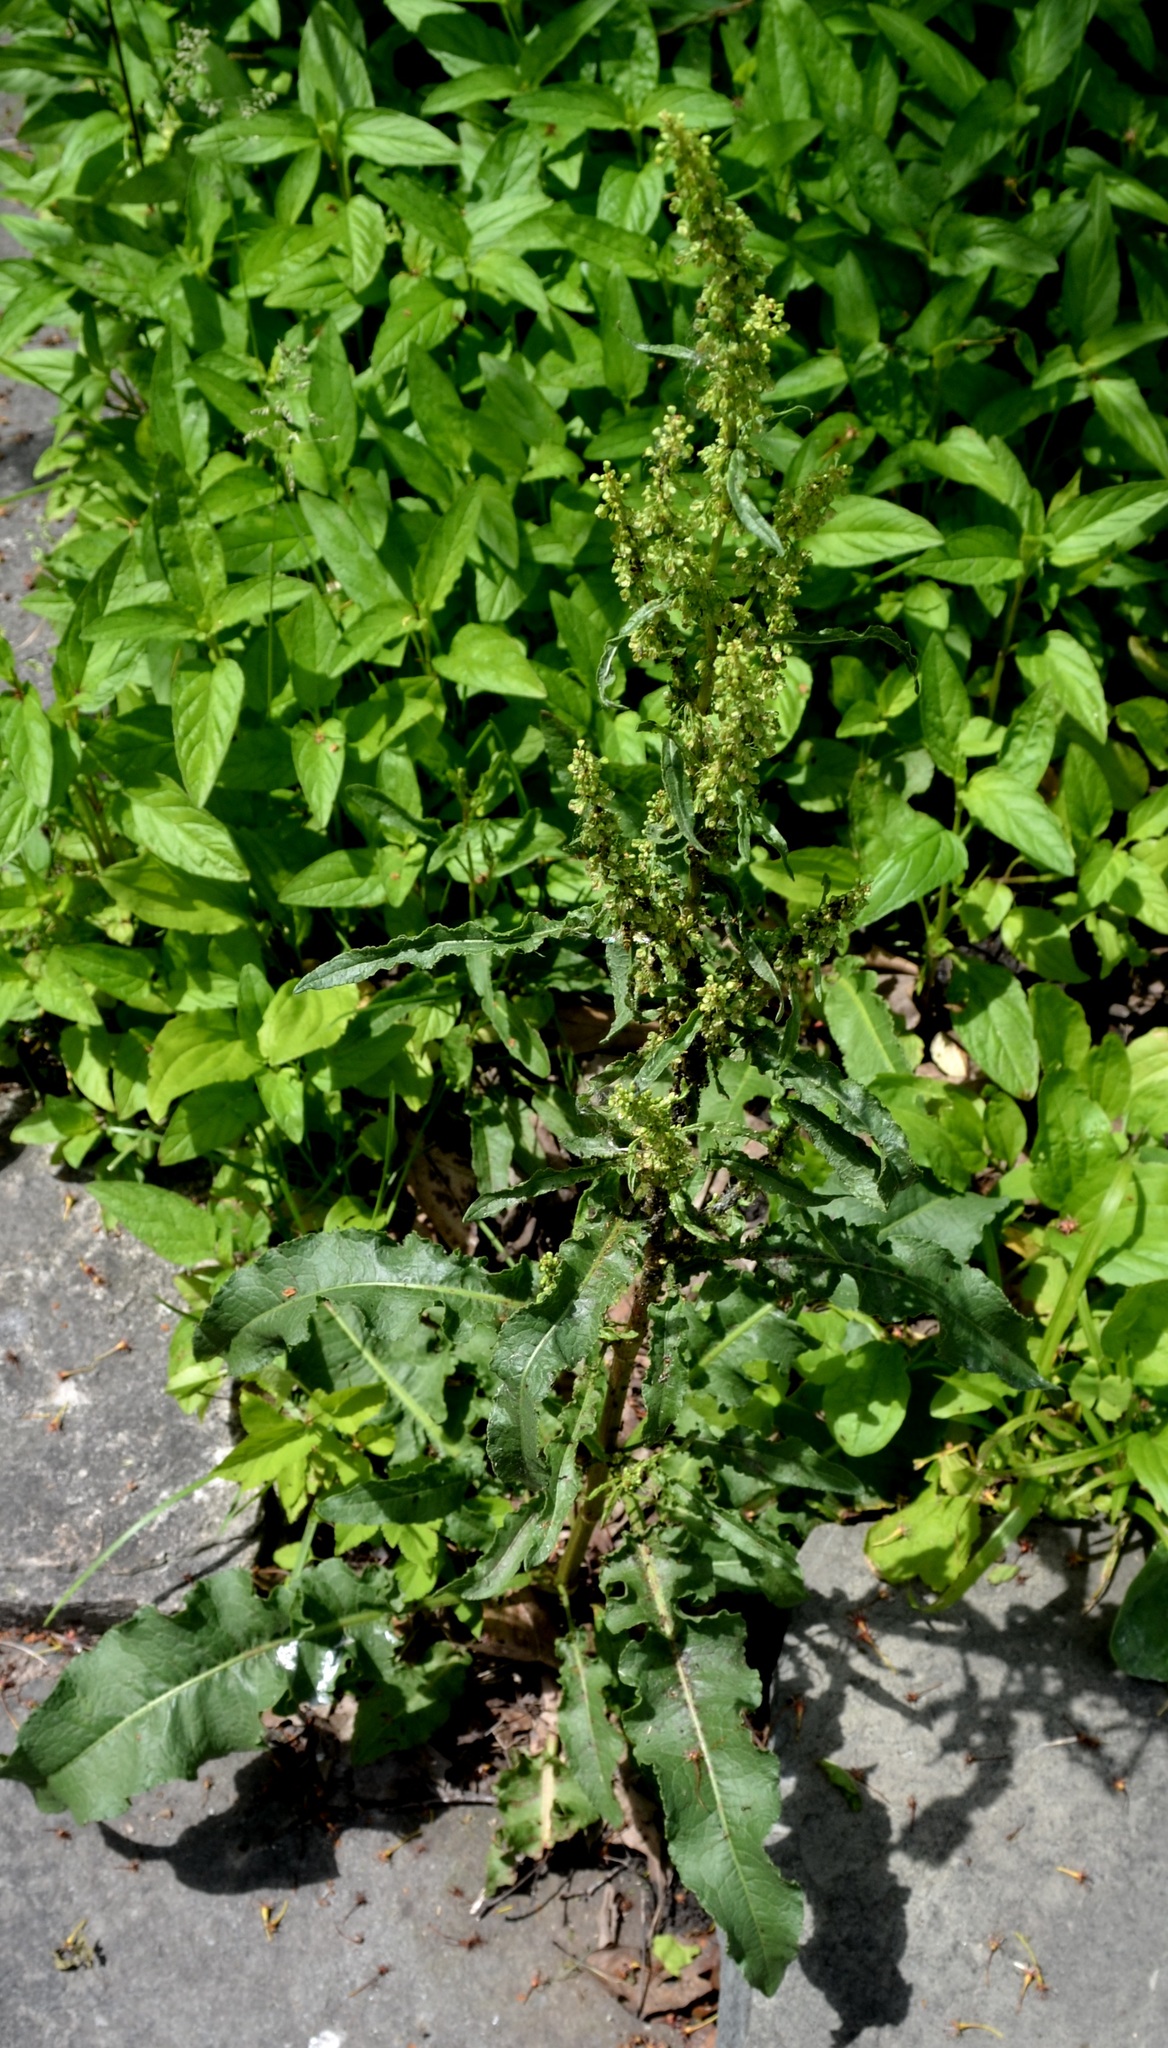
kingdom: Plantae
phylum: Tracheophyta
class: Magnoliopsida
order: Caryophyllales
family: Polygonaceae
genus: Rumex
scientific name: Rumex crispus
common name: Curled dock
